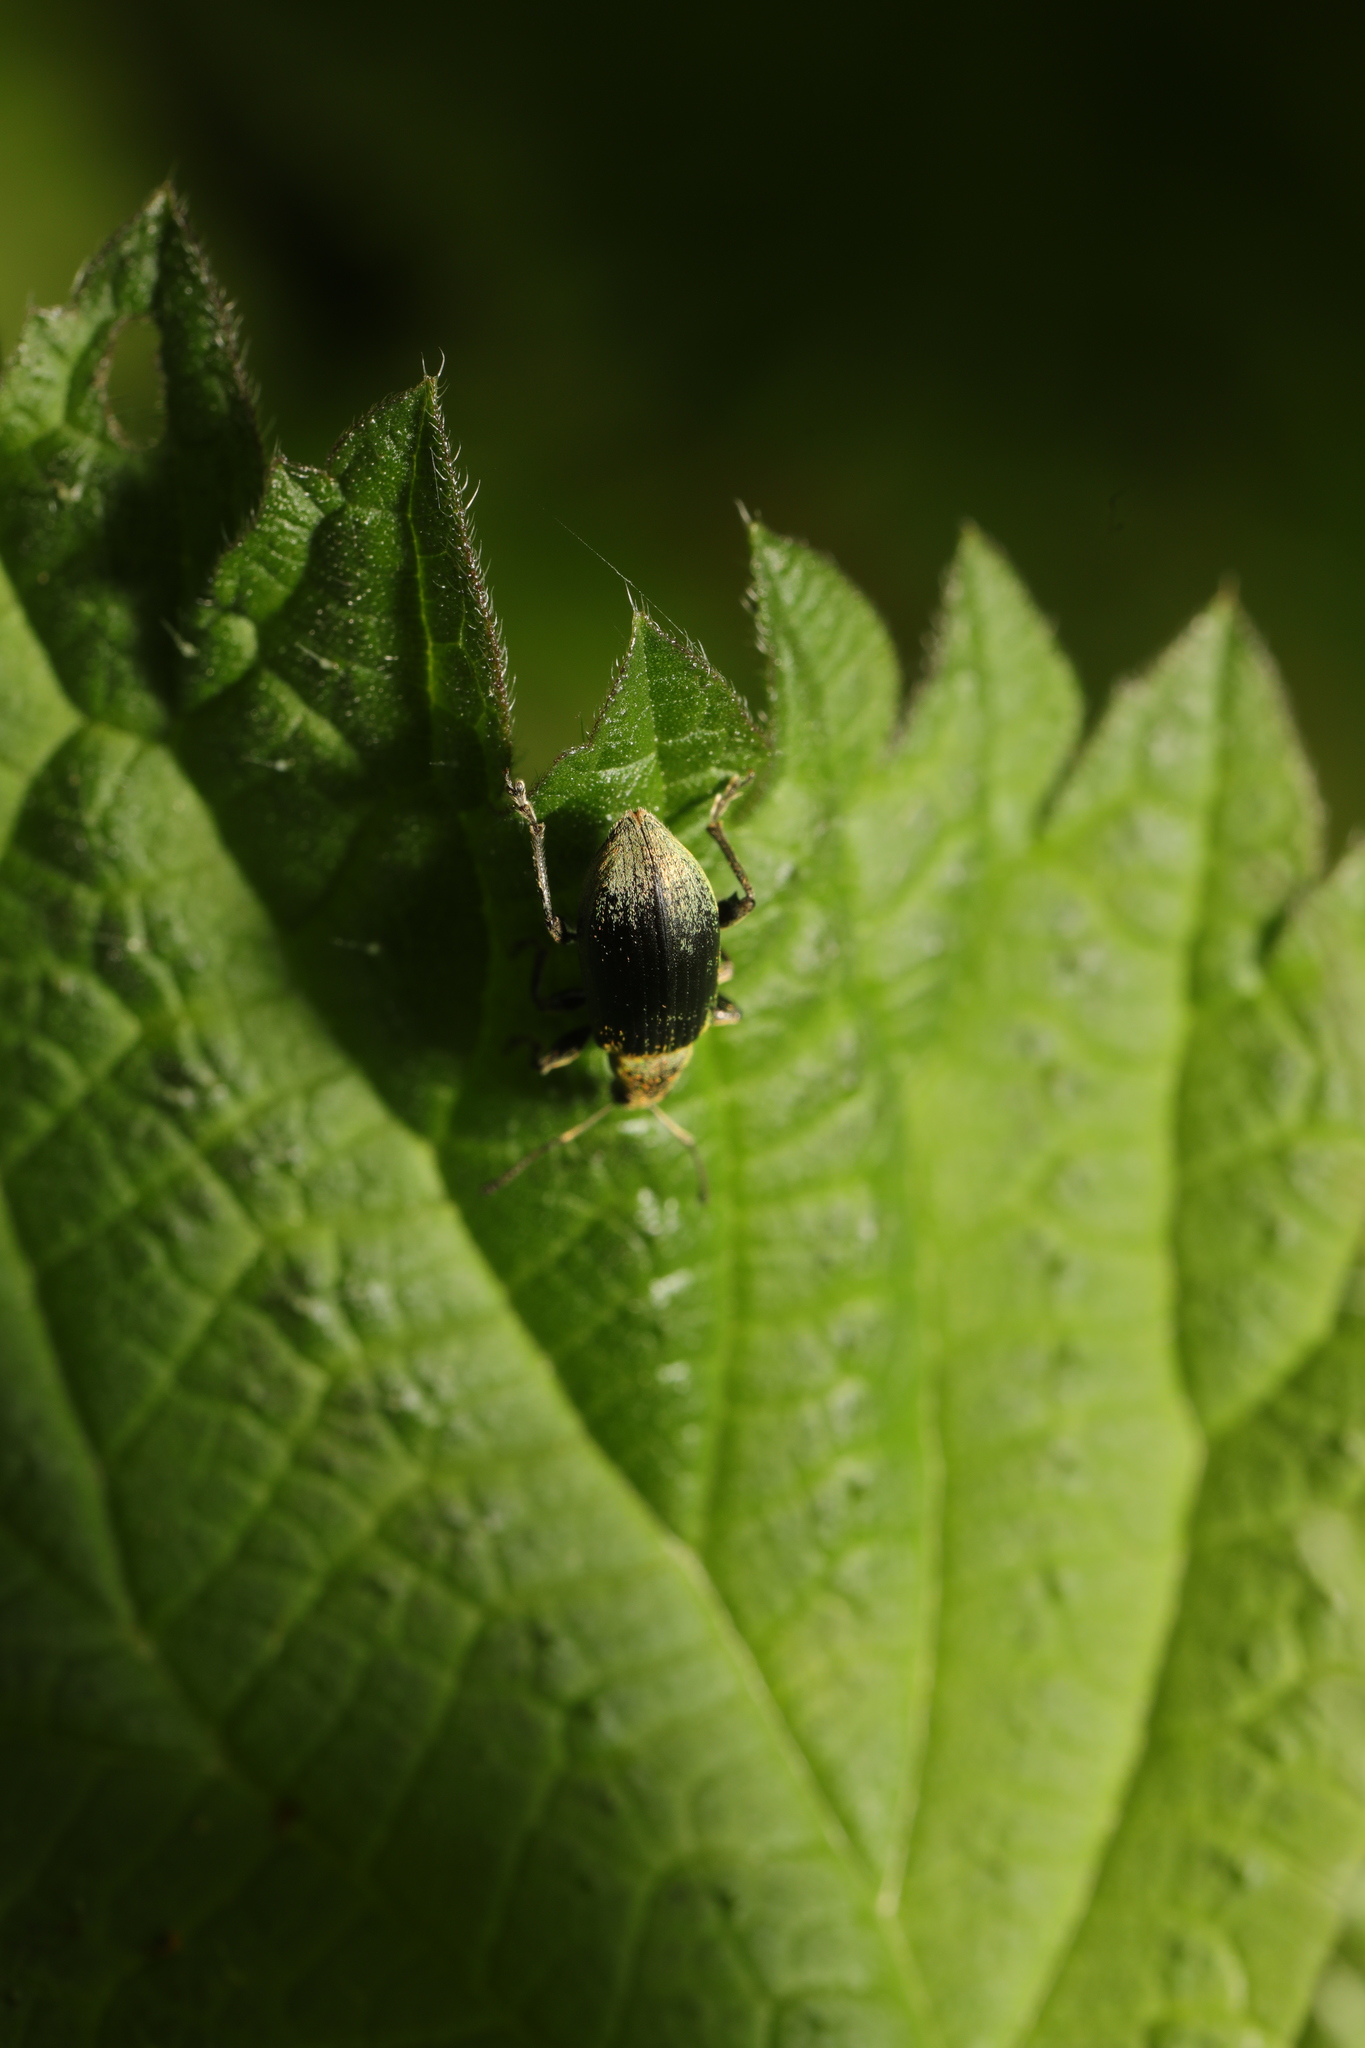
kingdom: Animalia
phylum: Arthropoda
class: Insecta
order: Coleoptera
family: Curculionidae
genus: Phyllobius
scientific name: Phyllobius pomaceus
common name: Green nettle weevil
